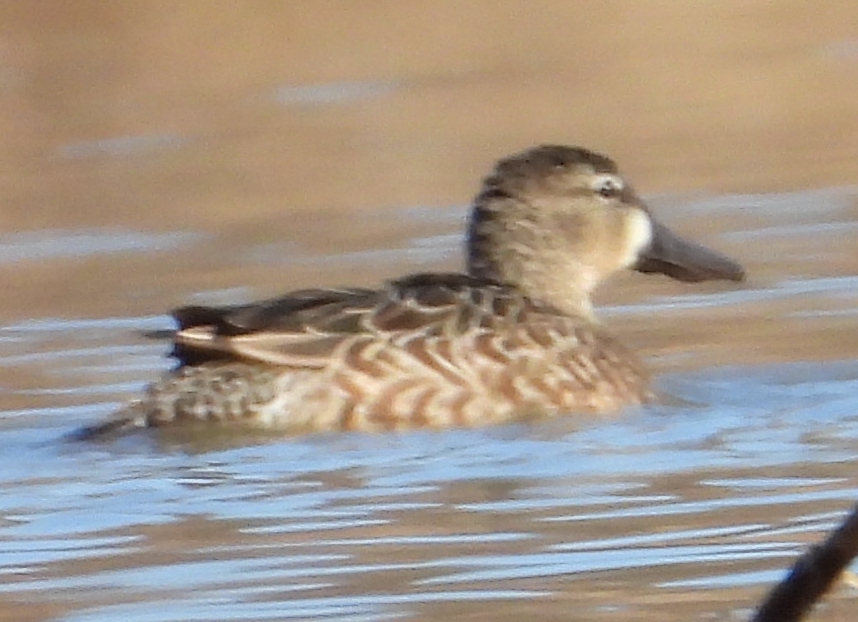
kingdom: Animalia
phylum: Chordata
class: Aves
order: Anseriformes
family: Anatidae
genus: Spatula
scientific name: Spatula discors
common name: Blue-winged teal
